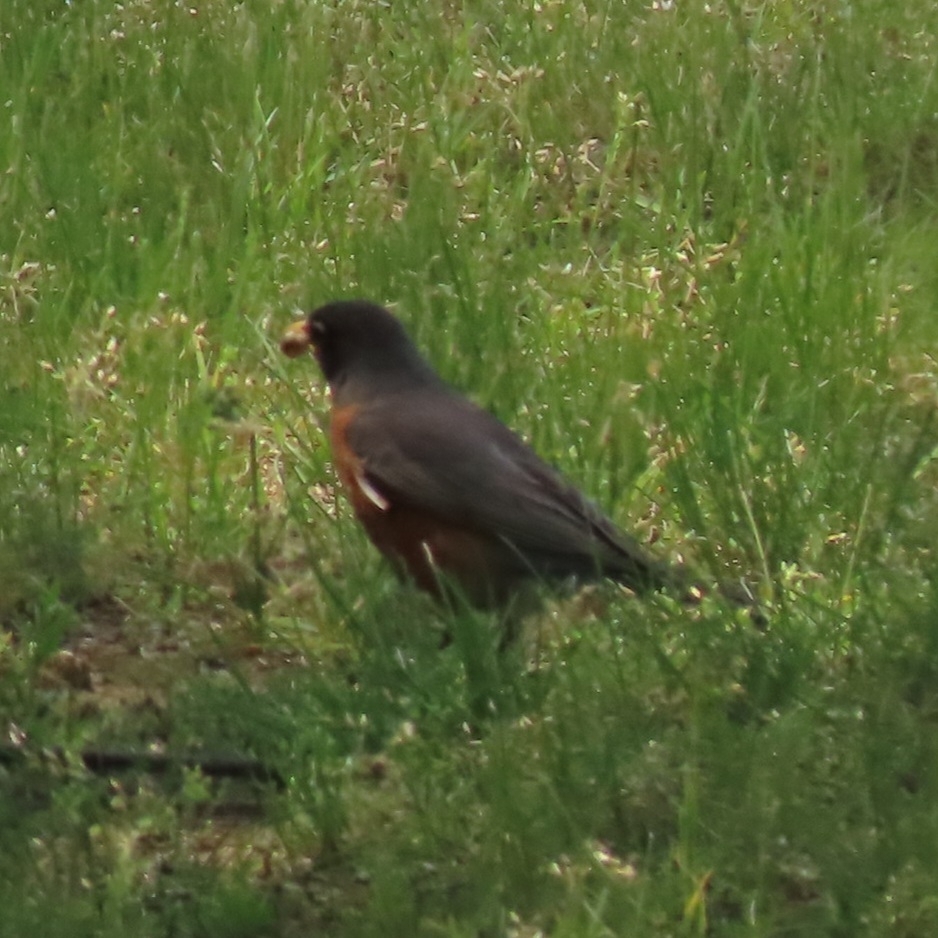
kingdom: Animalia
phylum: Chordata
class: Aves
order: Passeriformes
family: Turdidae
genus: Turdus
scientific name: Turdus migratorius
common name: American robin
